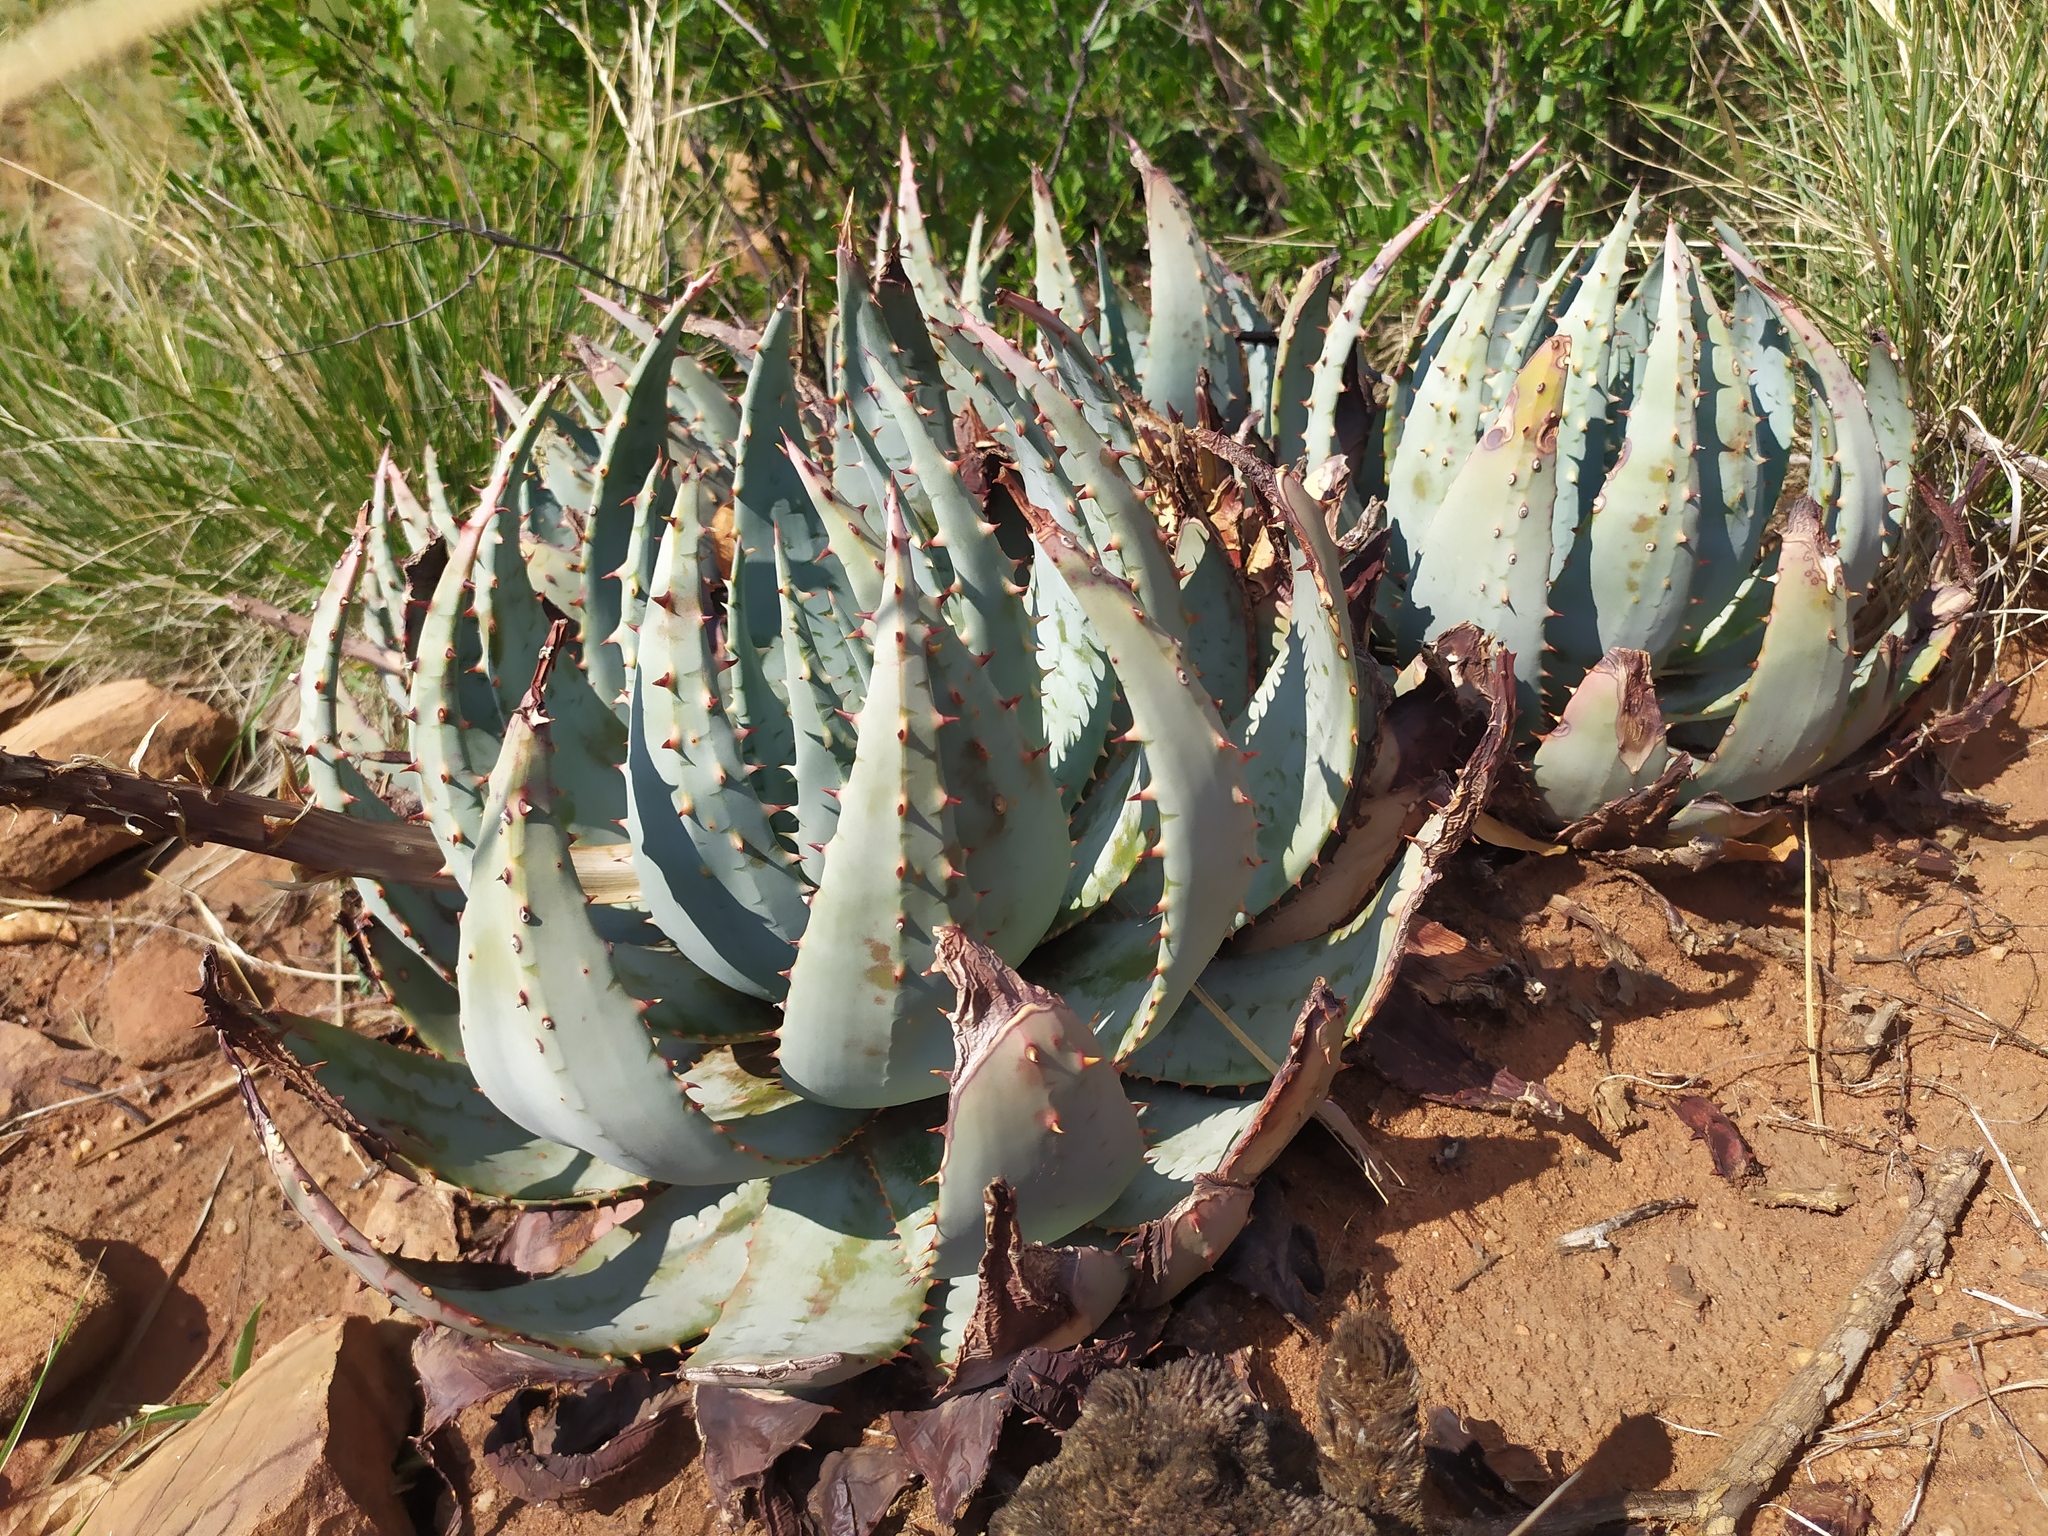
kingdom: Plantae
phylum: Tracheophyta
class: Liliopsida
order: Asparagales
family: Asphodelaceae
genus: Aloe
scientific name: Aloe peglerae
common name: Red-hot poker
